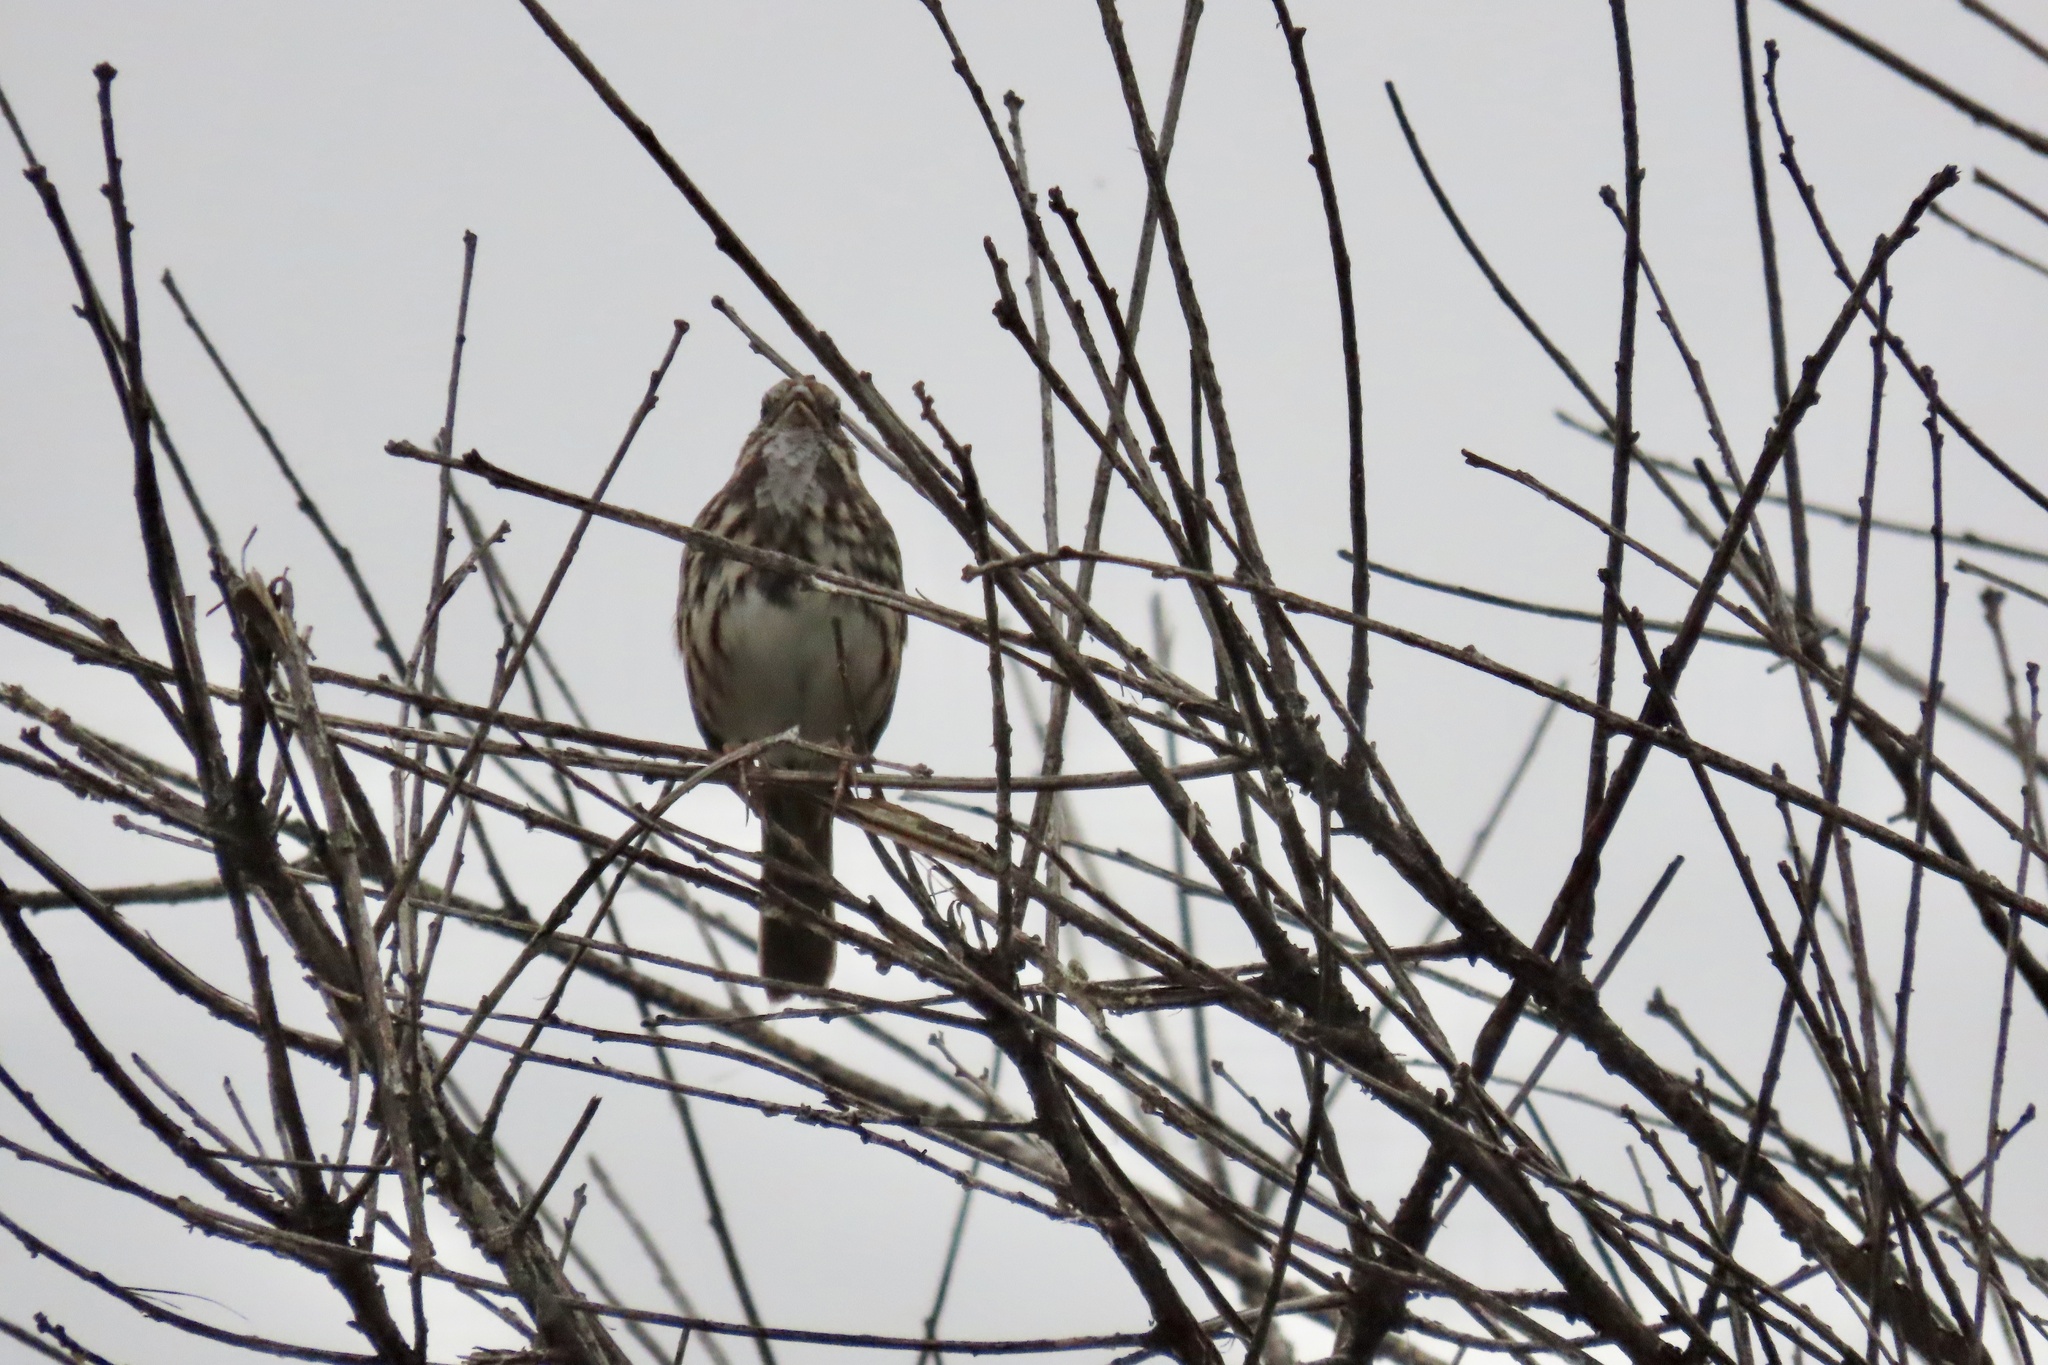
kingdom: Animalia
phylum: Chordata
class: Aves
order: Passeriformes
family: Passerellidae
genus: Melospiza
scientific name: Melospiza melodia
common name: Song sparrow
